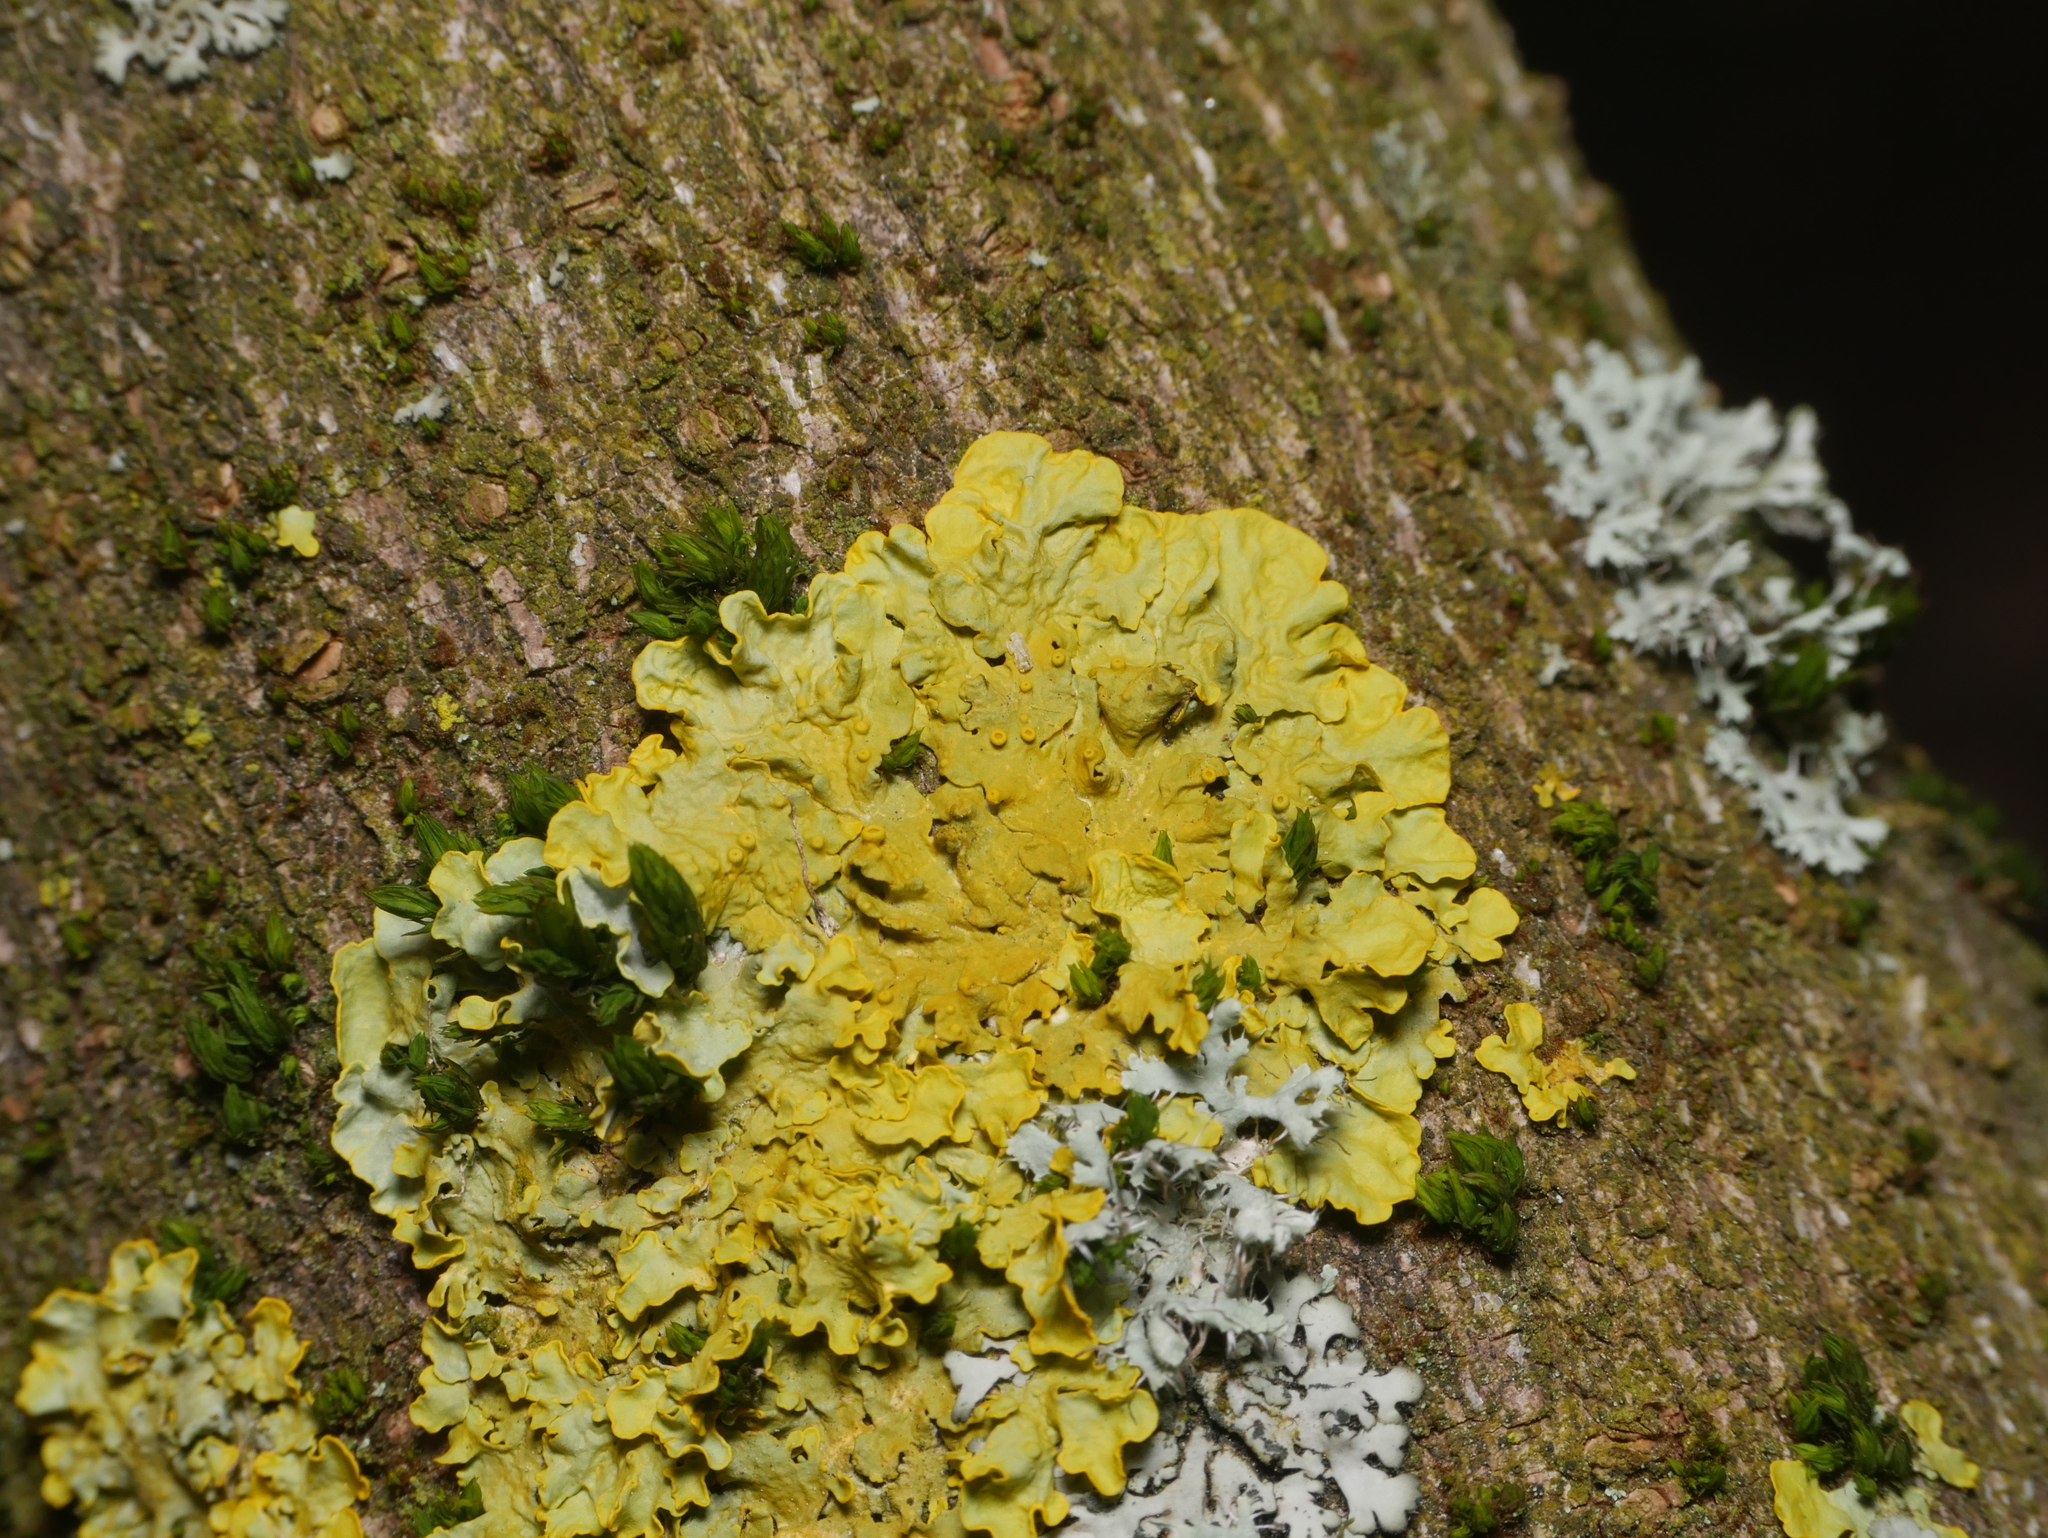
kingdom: Fungi
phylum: Ascomycota
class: Lecanoromycetes
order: Teloschistales
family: Teloschistaceae
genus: Xanthoria
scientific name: Xanthoria parietina
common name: Common orange lichen
